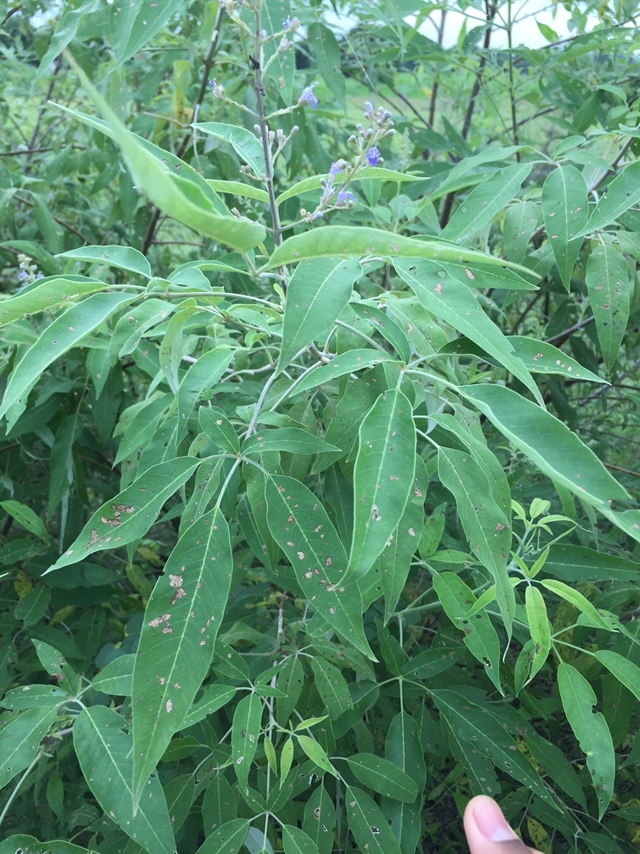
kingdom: Plantae
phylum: Tracheophyta
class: Magnoliopsida
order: Lamiales
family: Lamiaceae
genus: Vitex
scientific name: Vitex negundo
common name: Chinese chastetree
